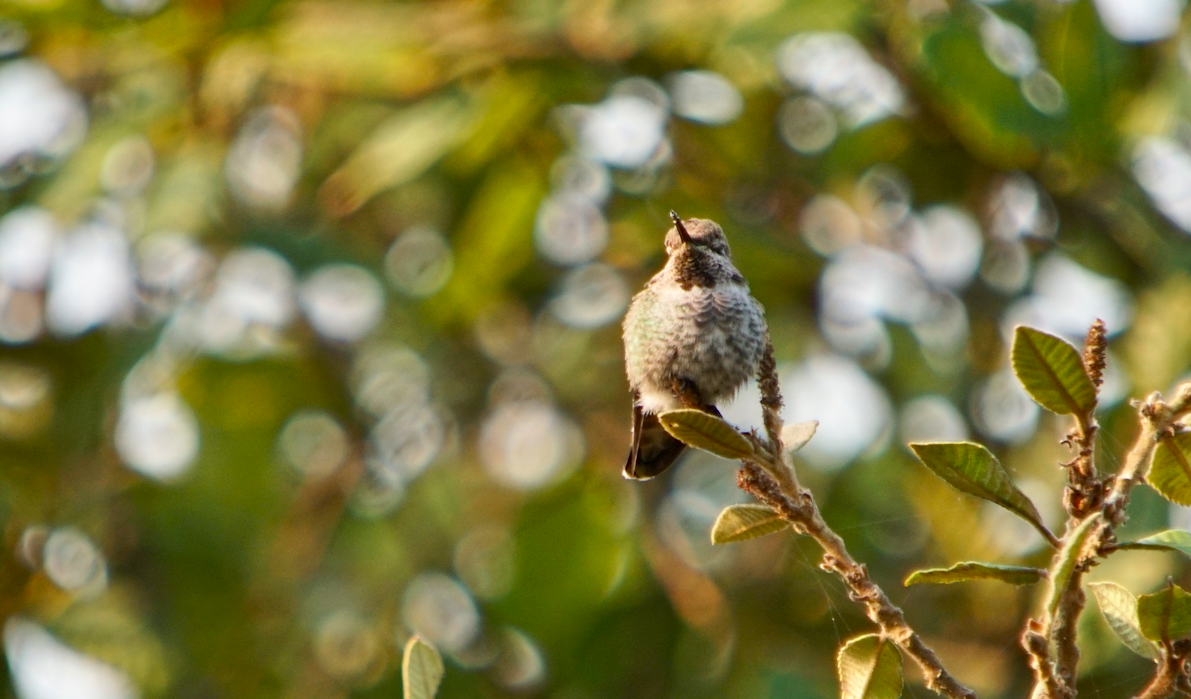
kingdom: Animalia
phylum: Chordata
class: Aves
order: Apodiformes
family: Trochilidae
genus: Calypte
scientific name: Calypte anna
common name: Anna's hummingbird
